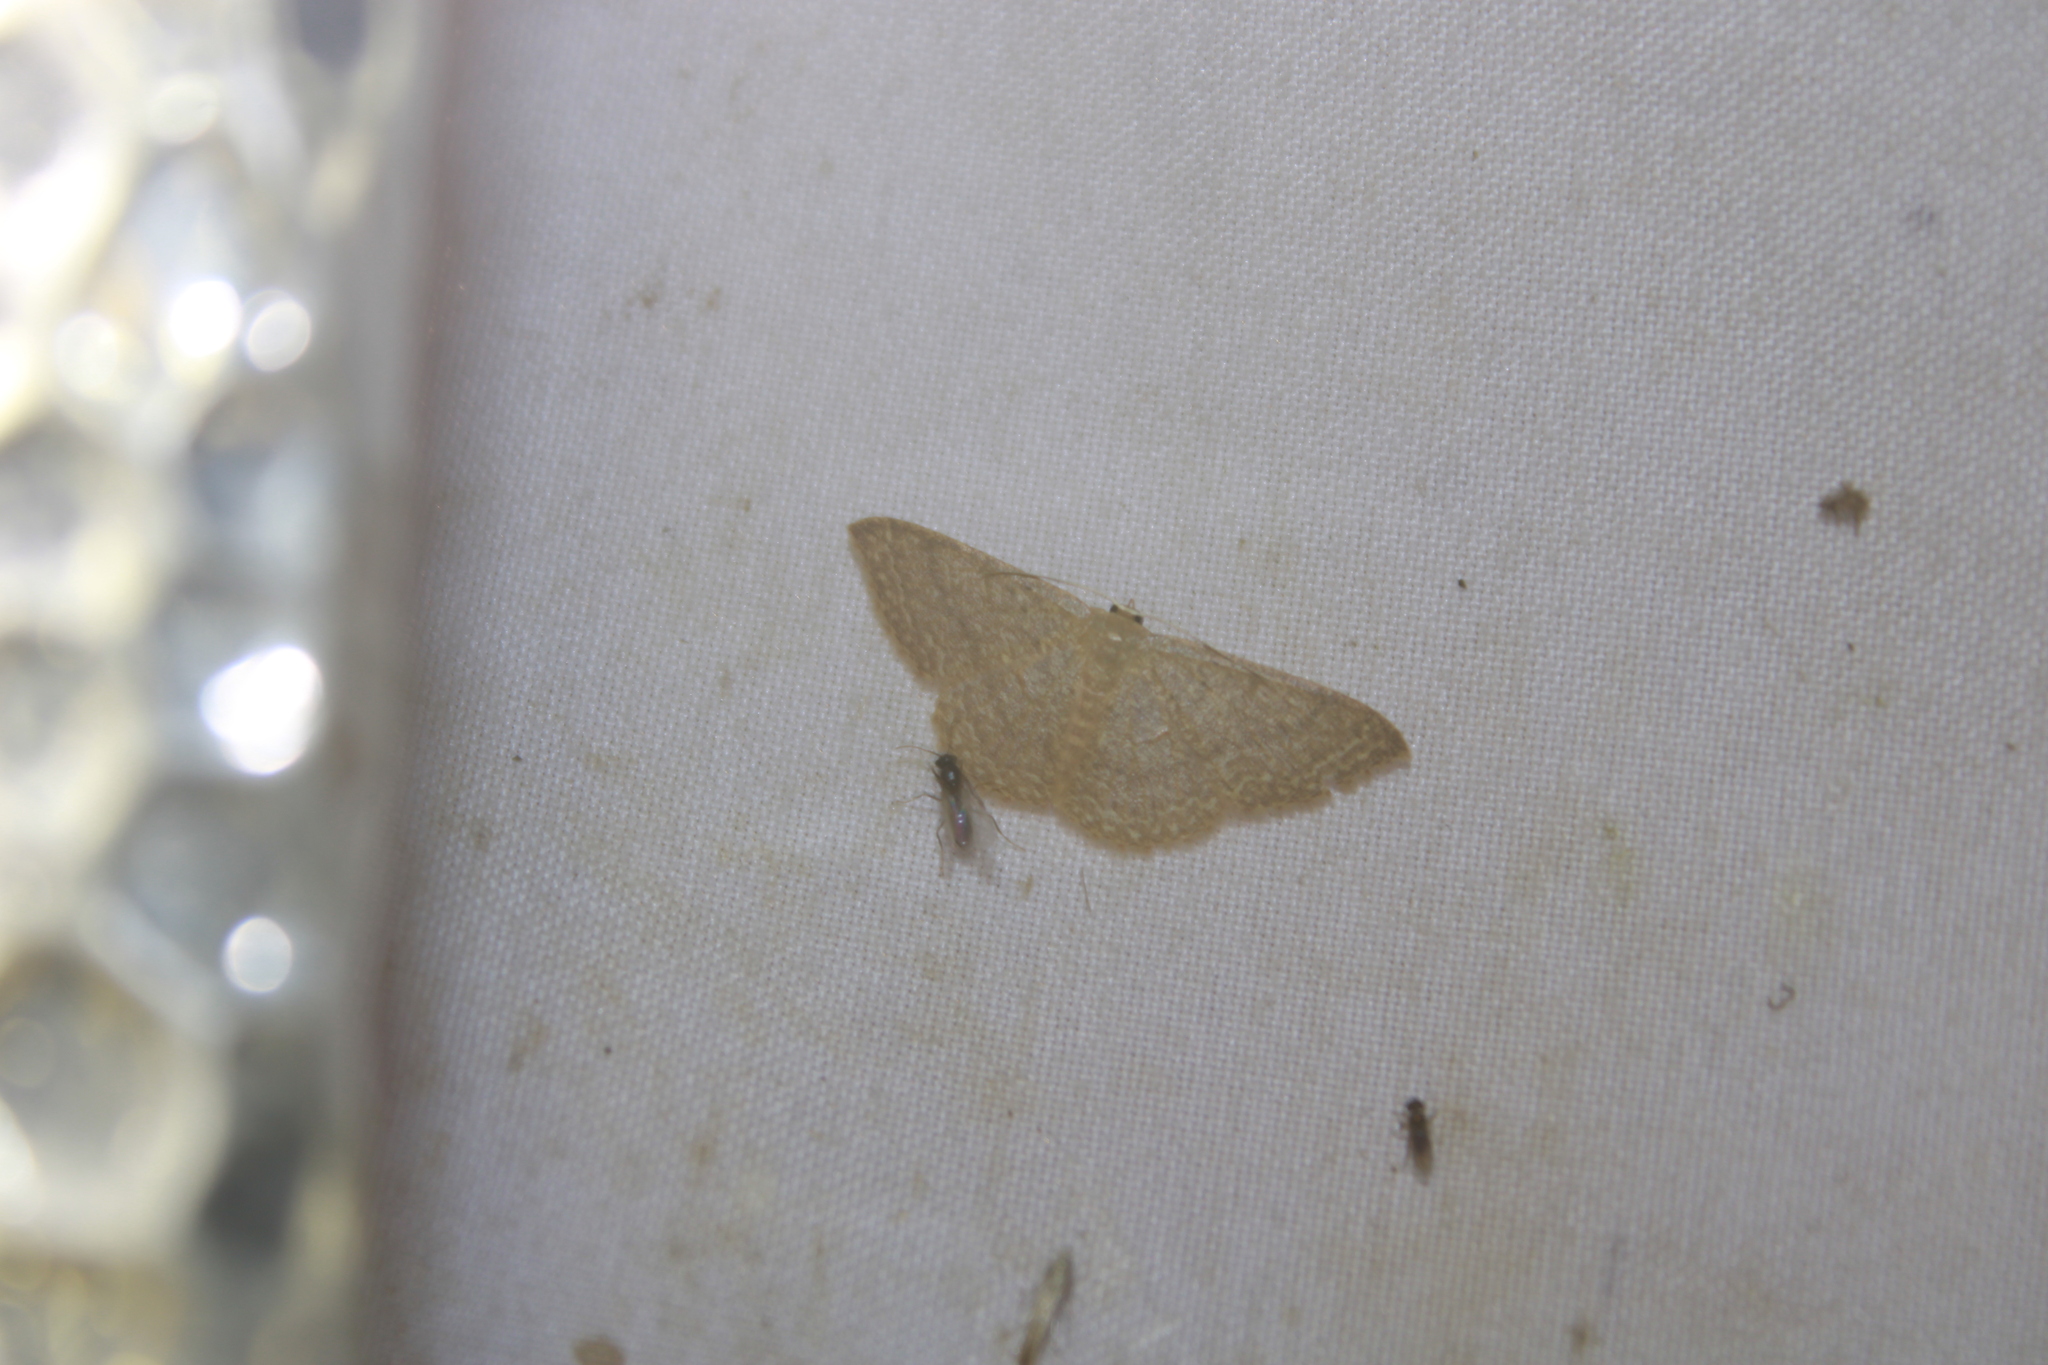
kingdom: Animalia
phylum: Arthropoda
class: Insecta
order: Lepidoptera
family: Geometridae
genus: Pleuroprucha
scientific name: Pleuroprucha insulsaria
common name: Common tan wave
